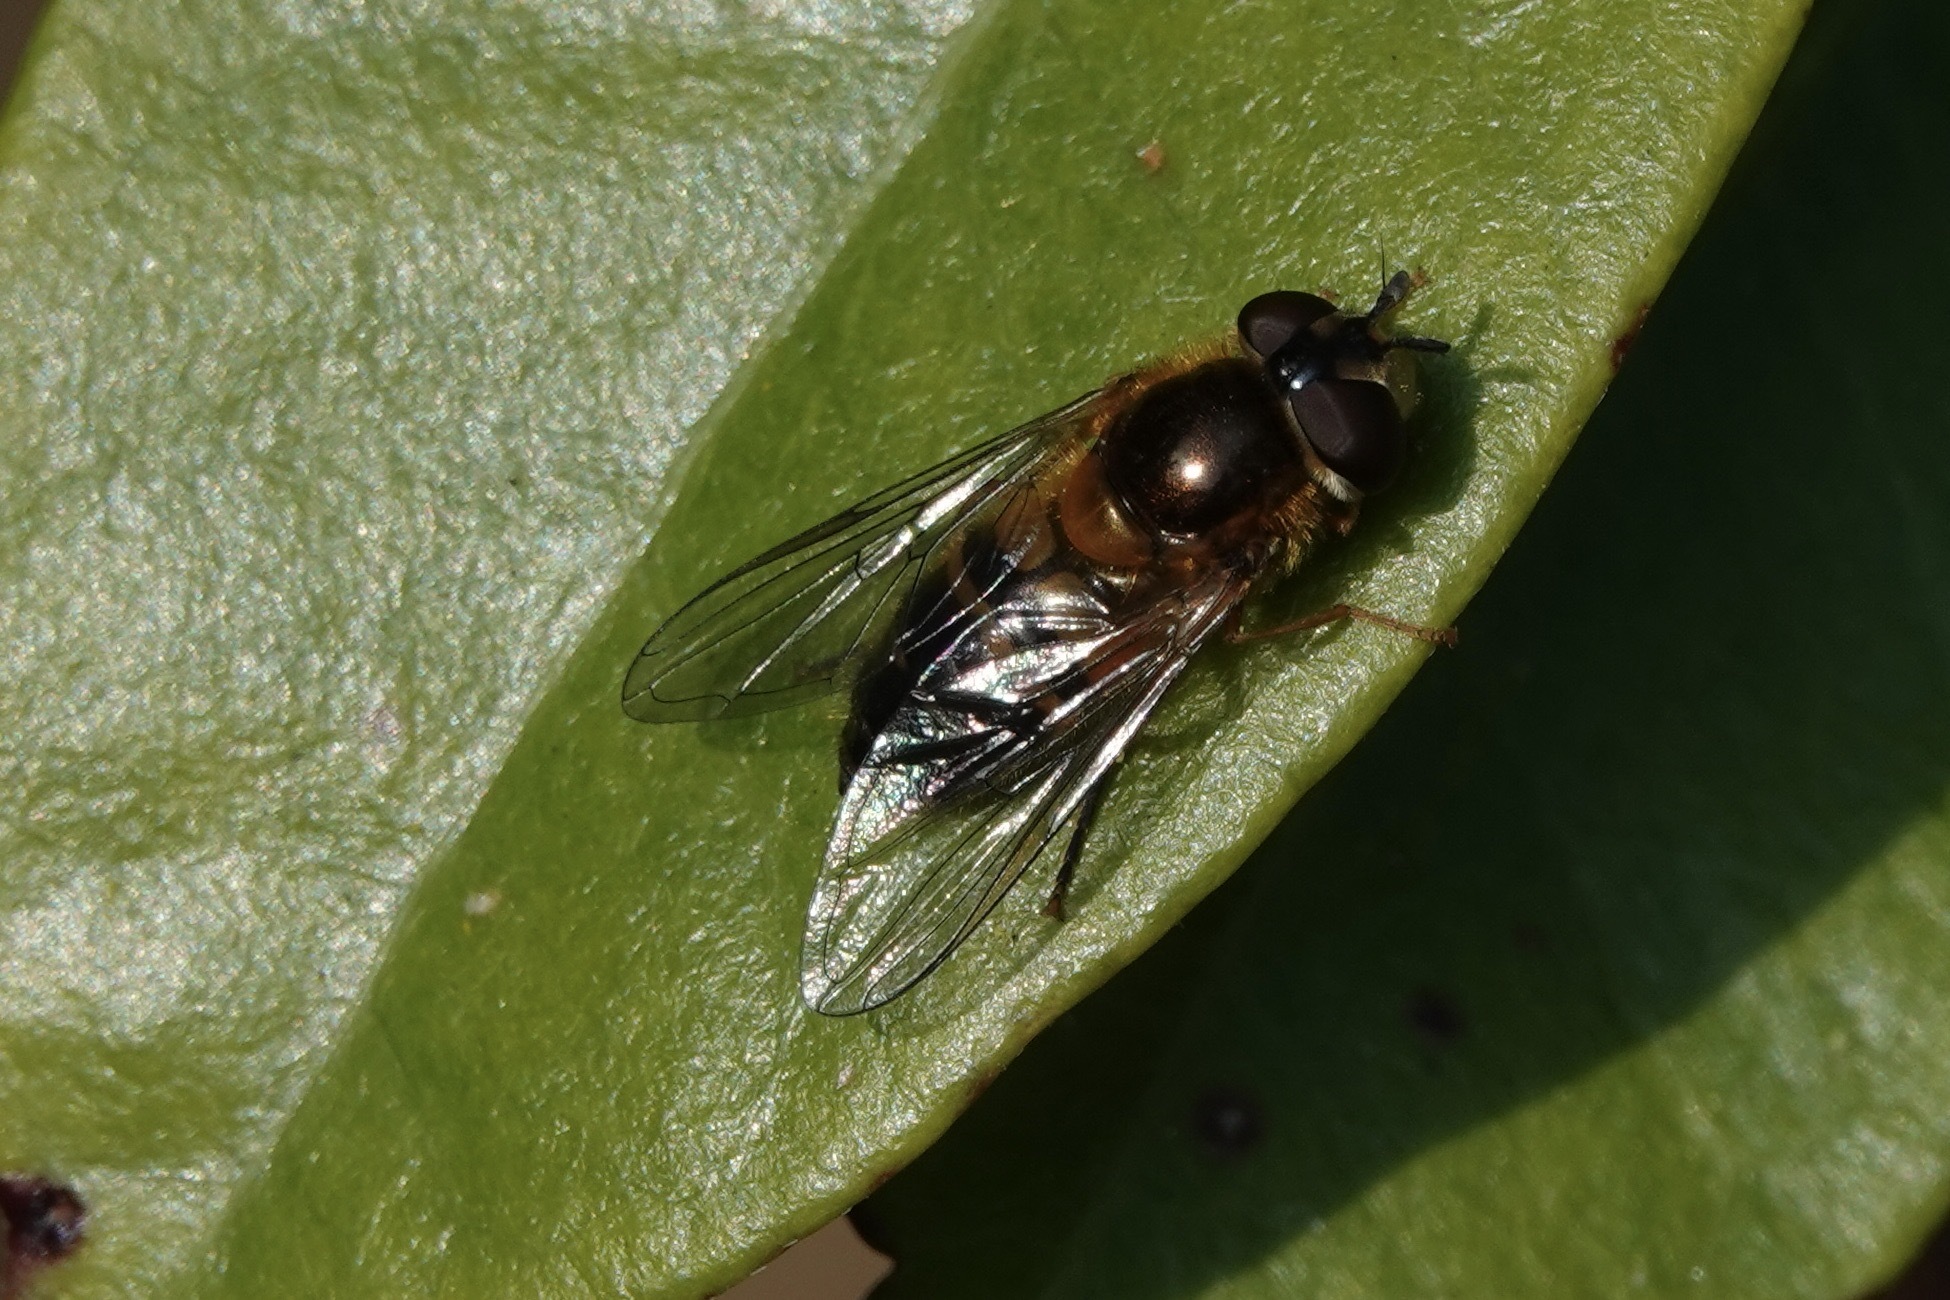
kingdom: Animalia
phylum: Arthropoda
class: Insecta
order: Diptera
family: Syrphidae
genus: Epistrophe
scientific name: Epistrophe eligans
